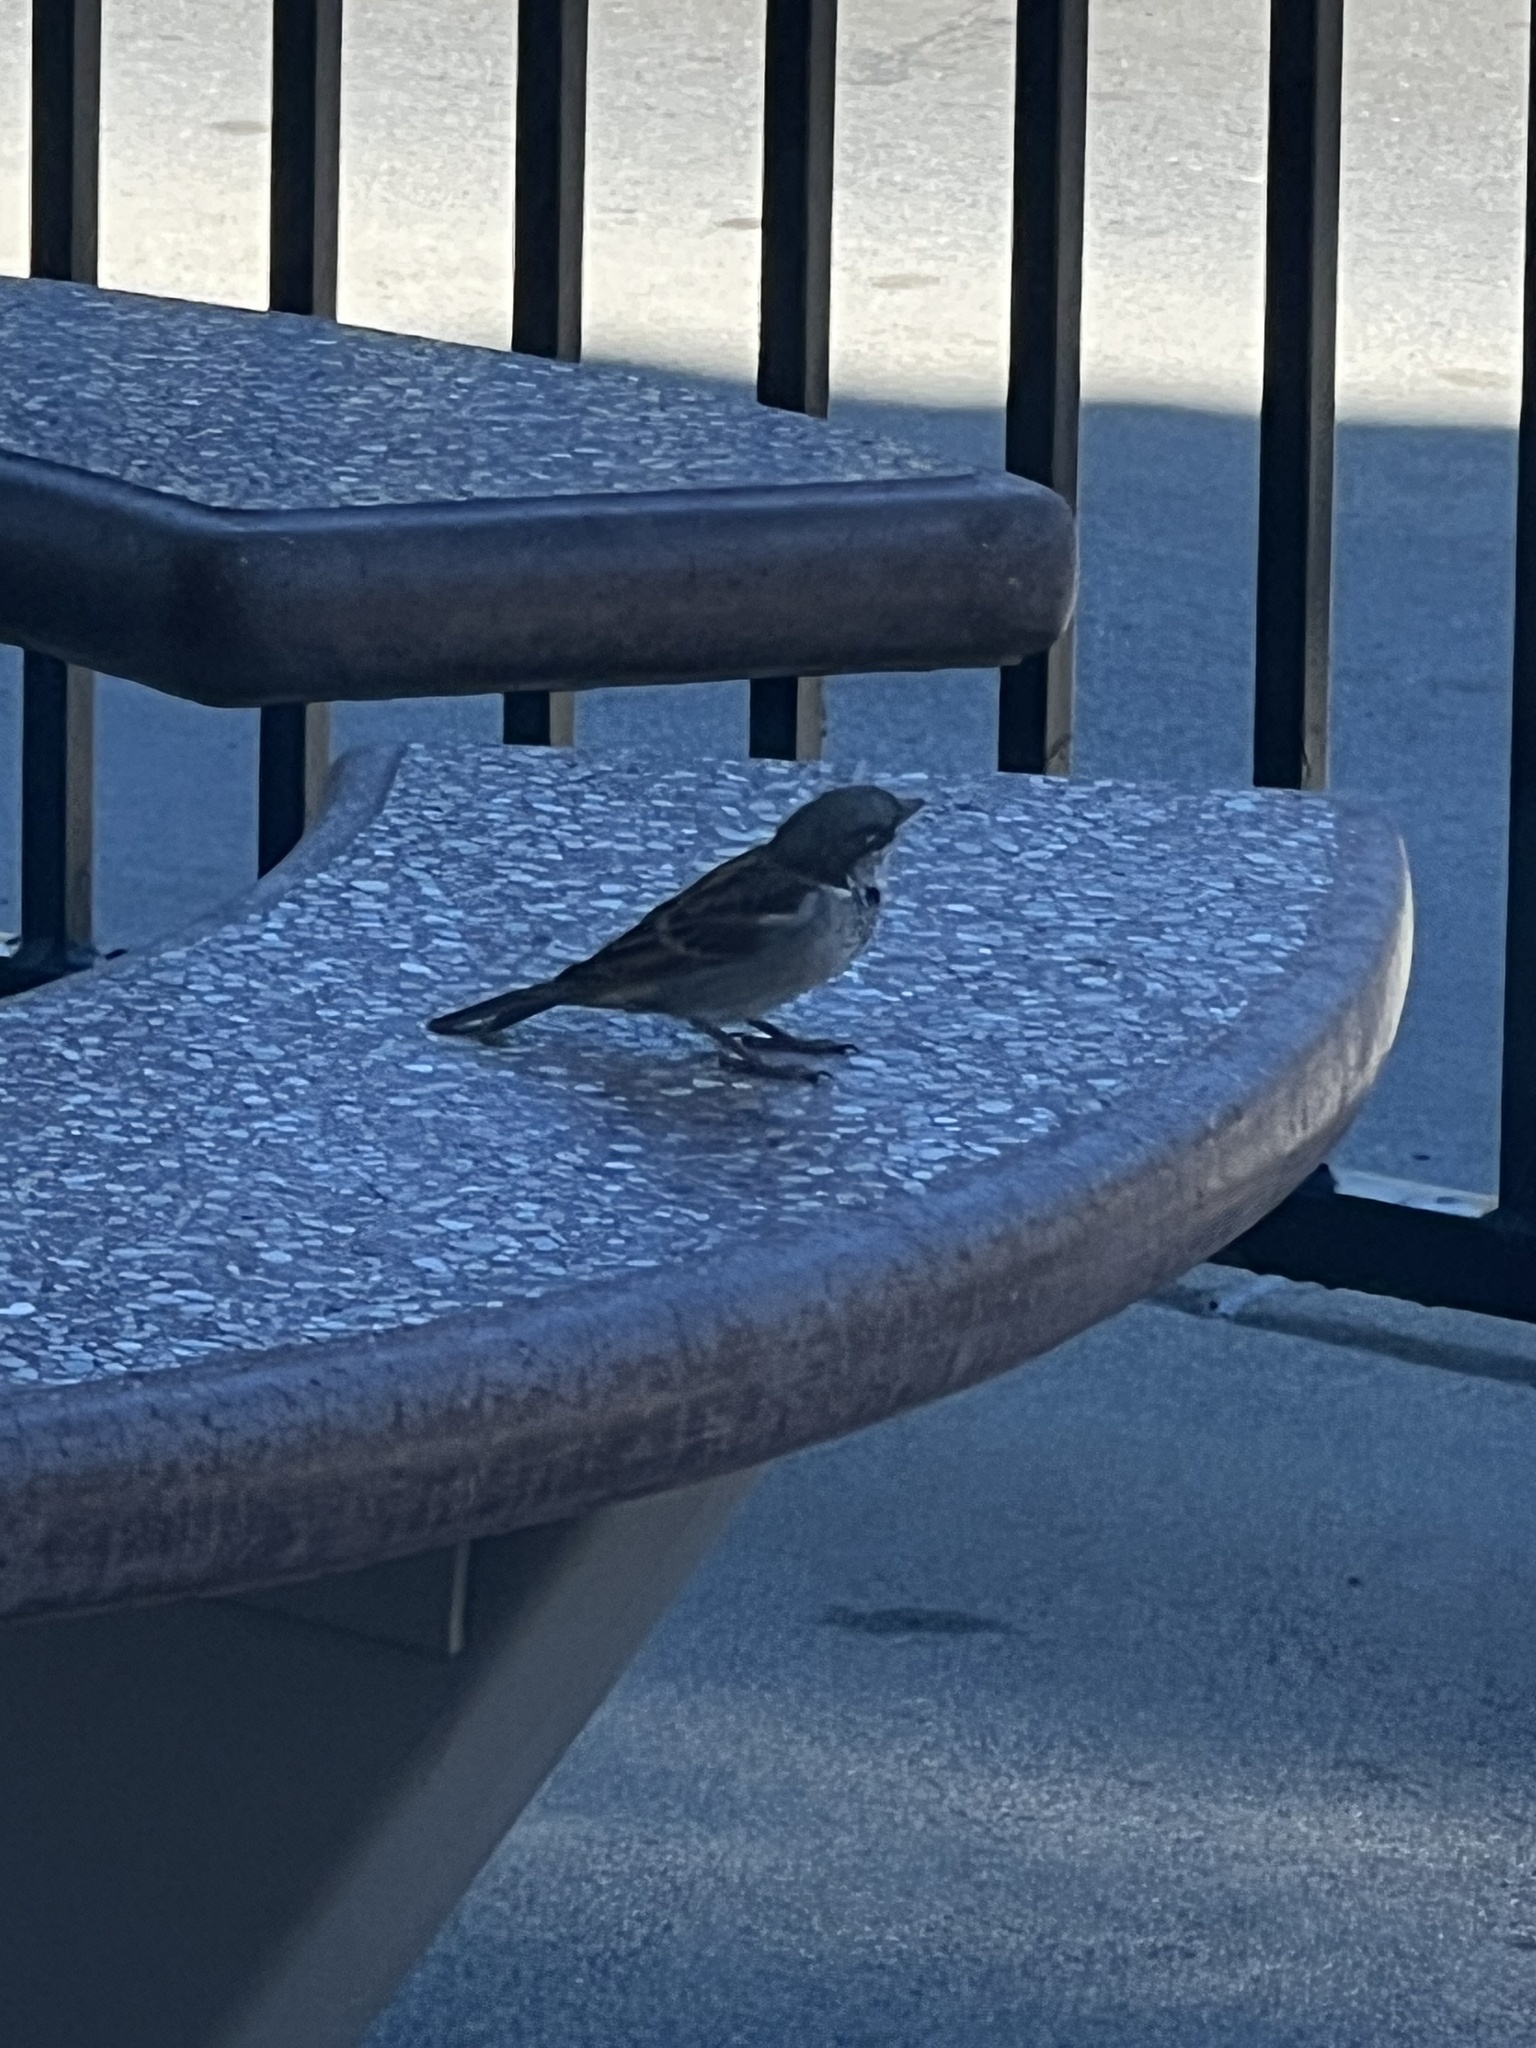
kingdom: Animalia
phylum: Chordata
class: Aves
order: Passeriformes
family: Passeridae
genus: Passer
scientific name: Passer domesticus
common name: House sparrow
